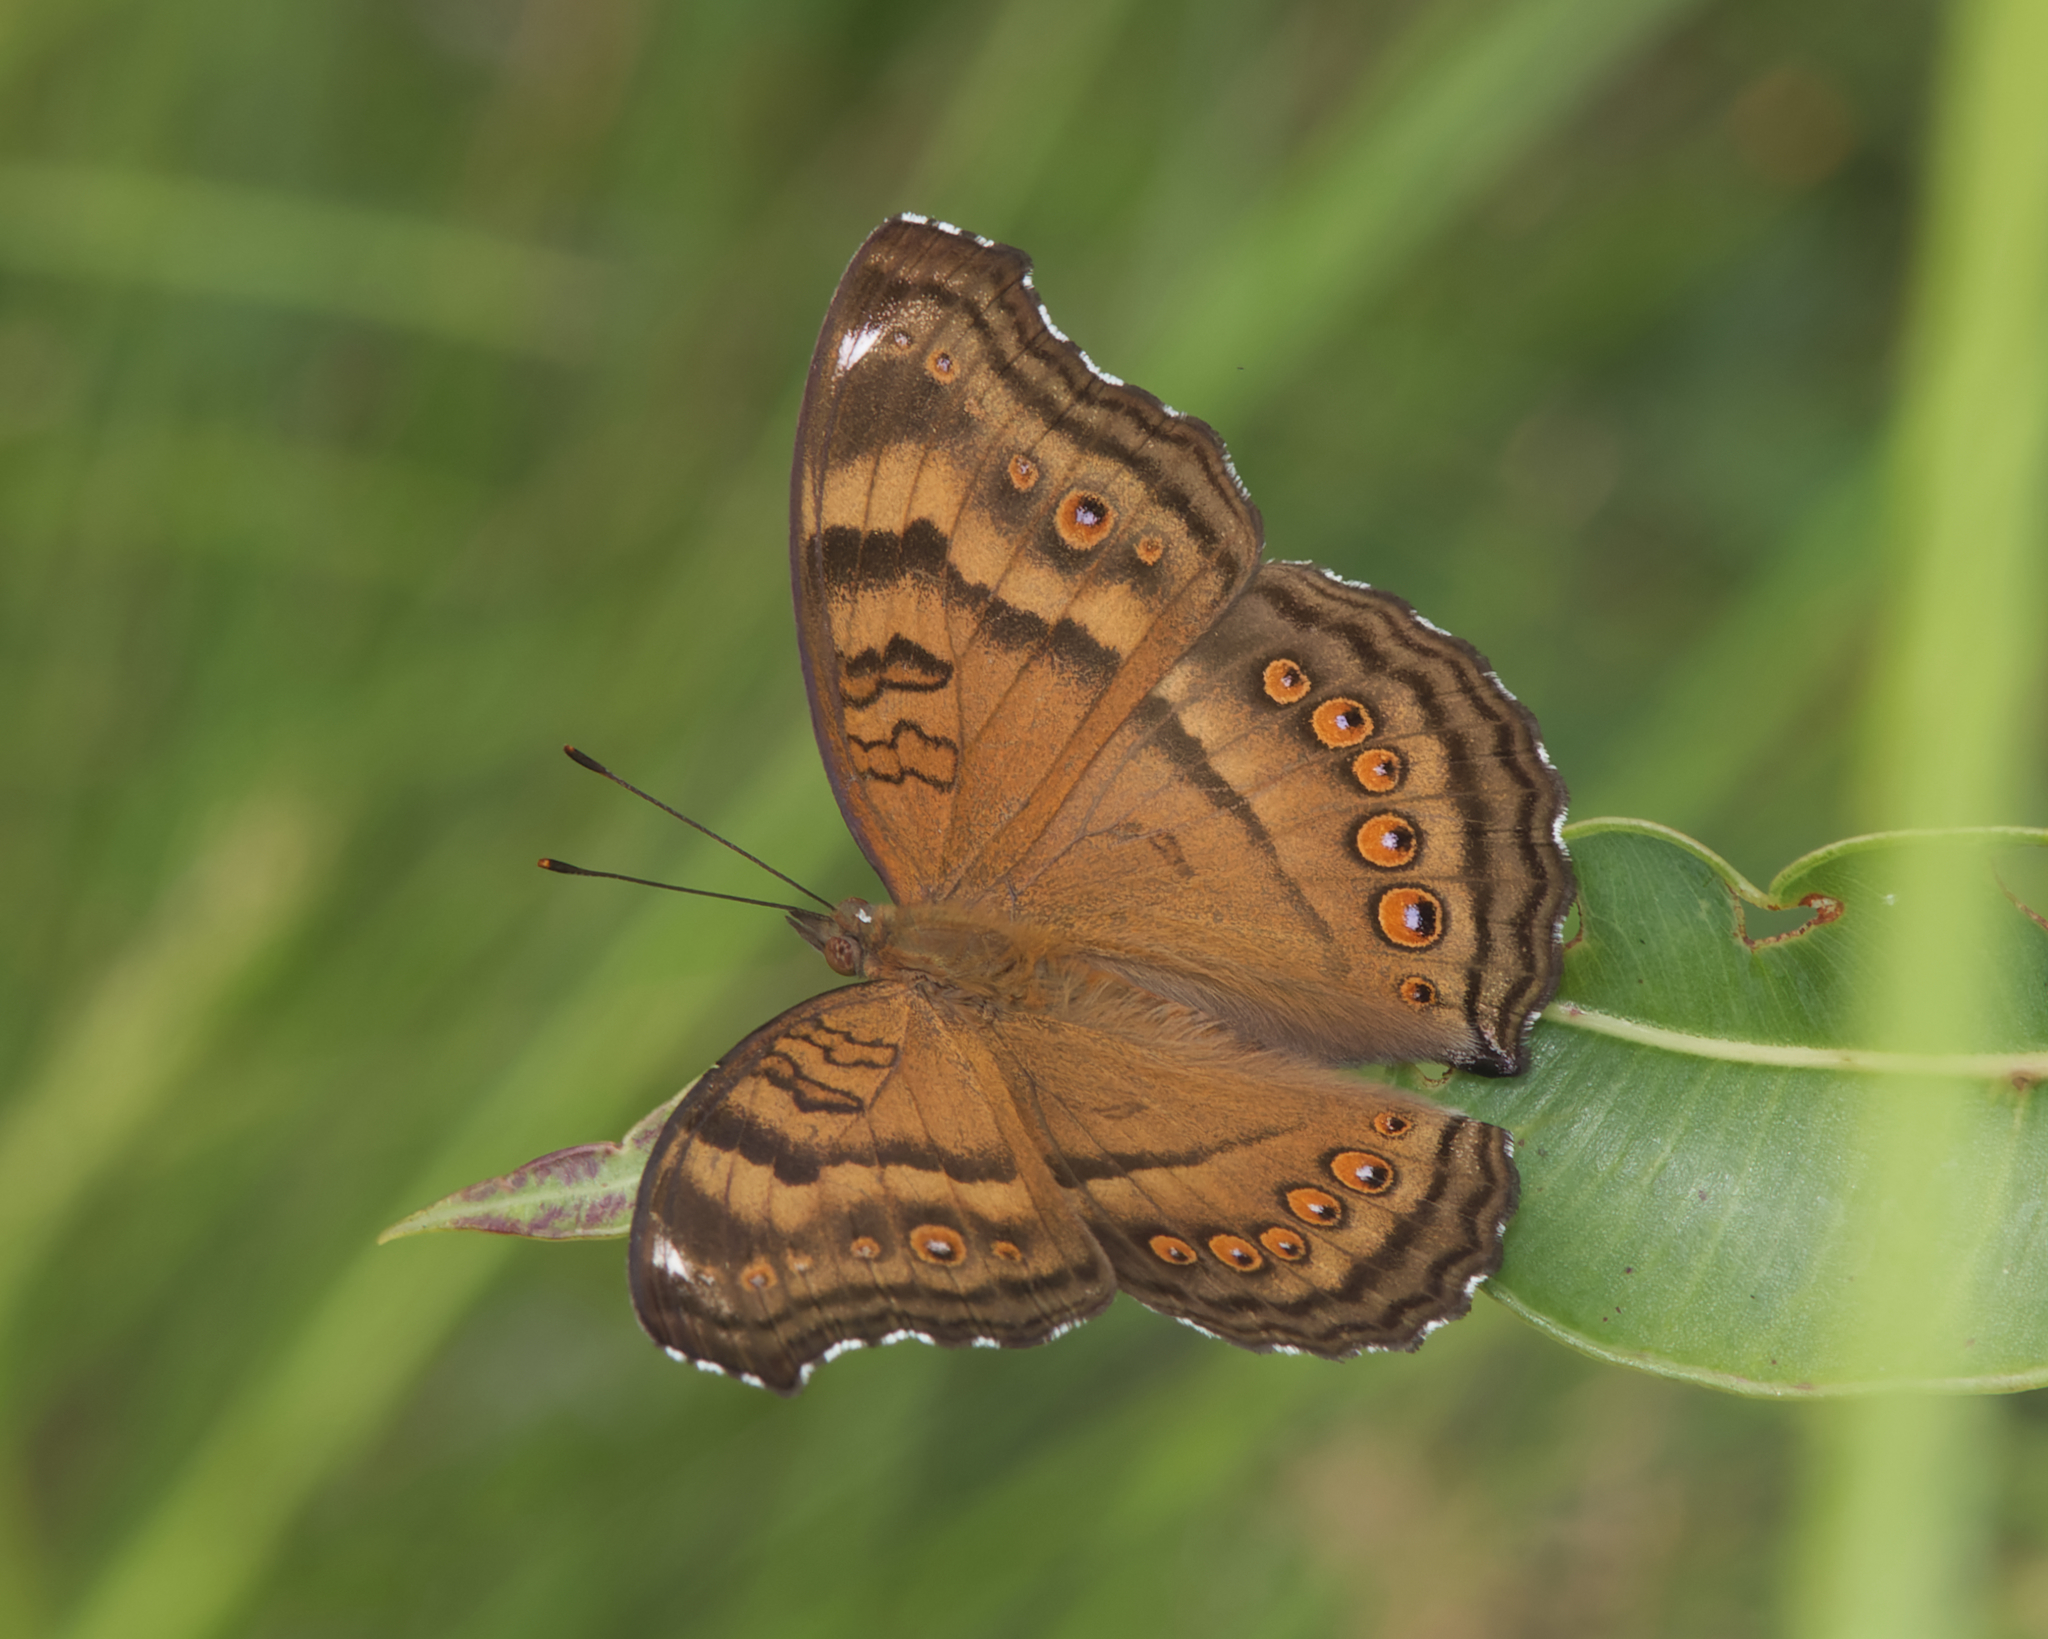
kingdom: Animalia
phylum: Arthropoda
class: Insecta
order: Lepidoptera
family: Nymphalidae
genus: Junonia
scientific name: Junonia hedonia
